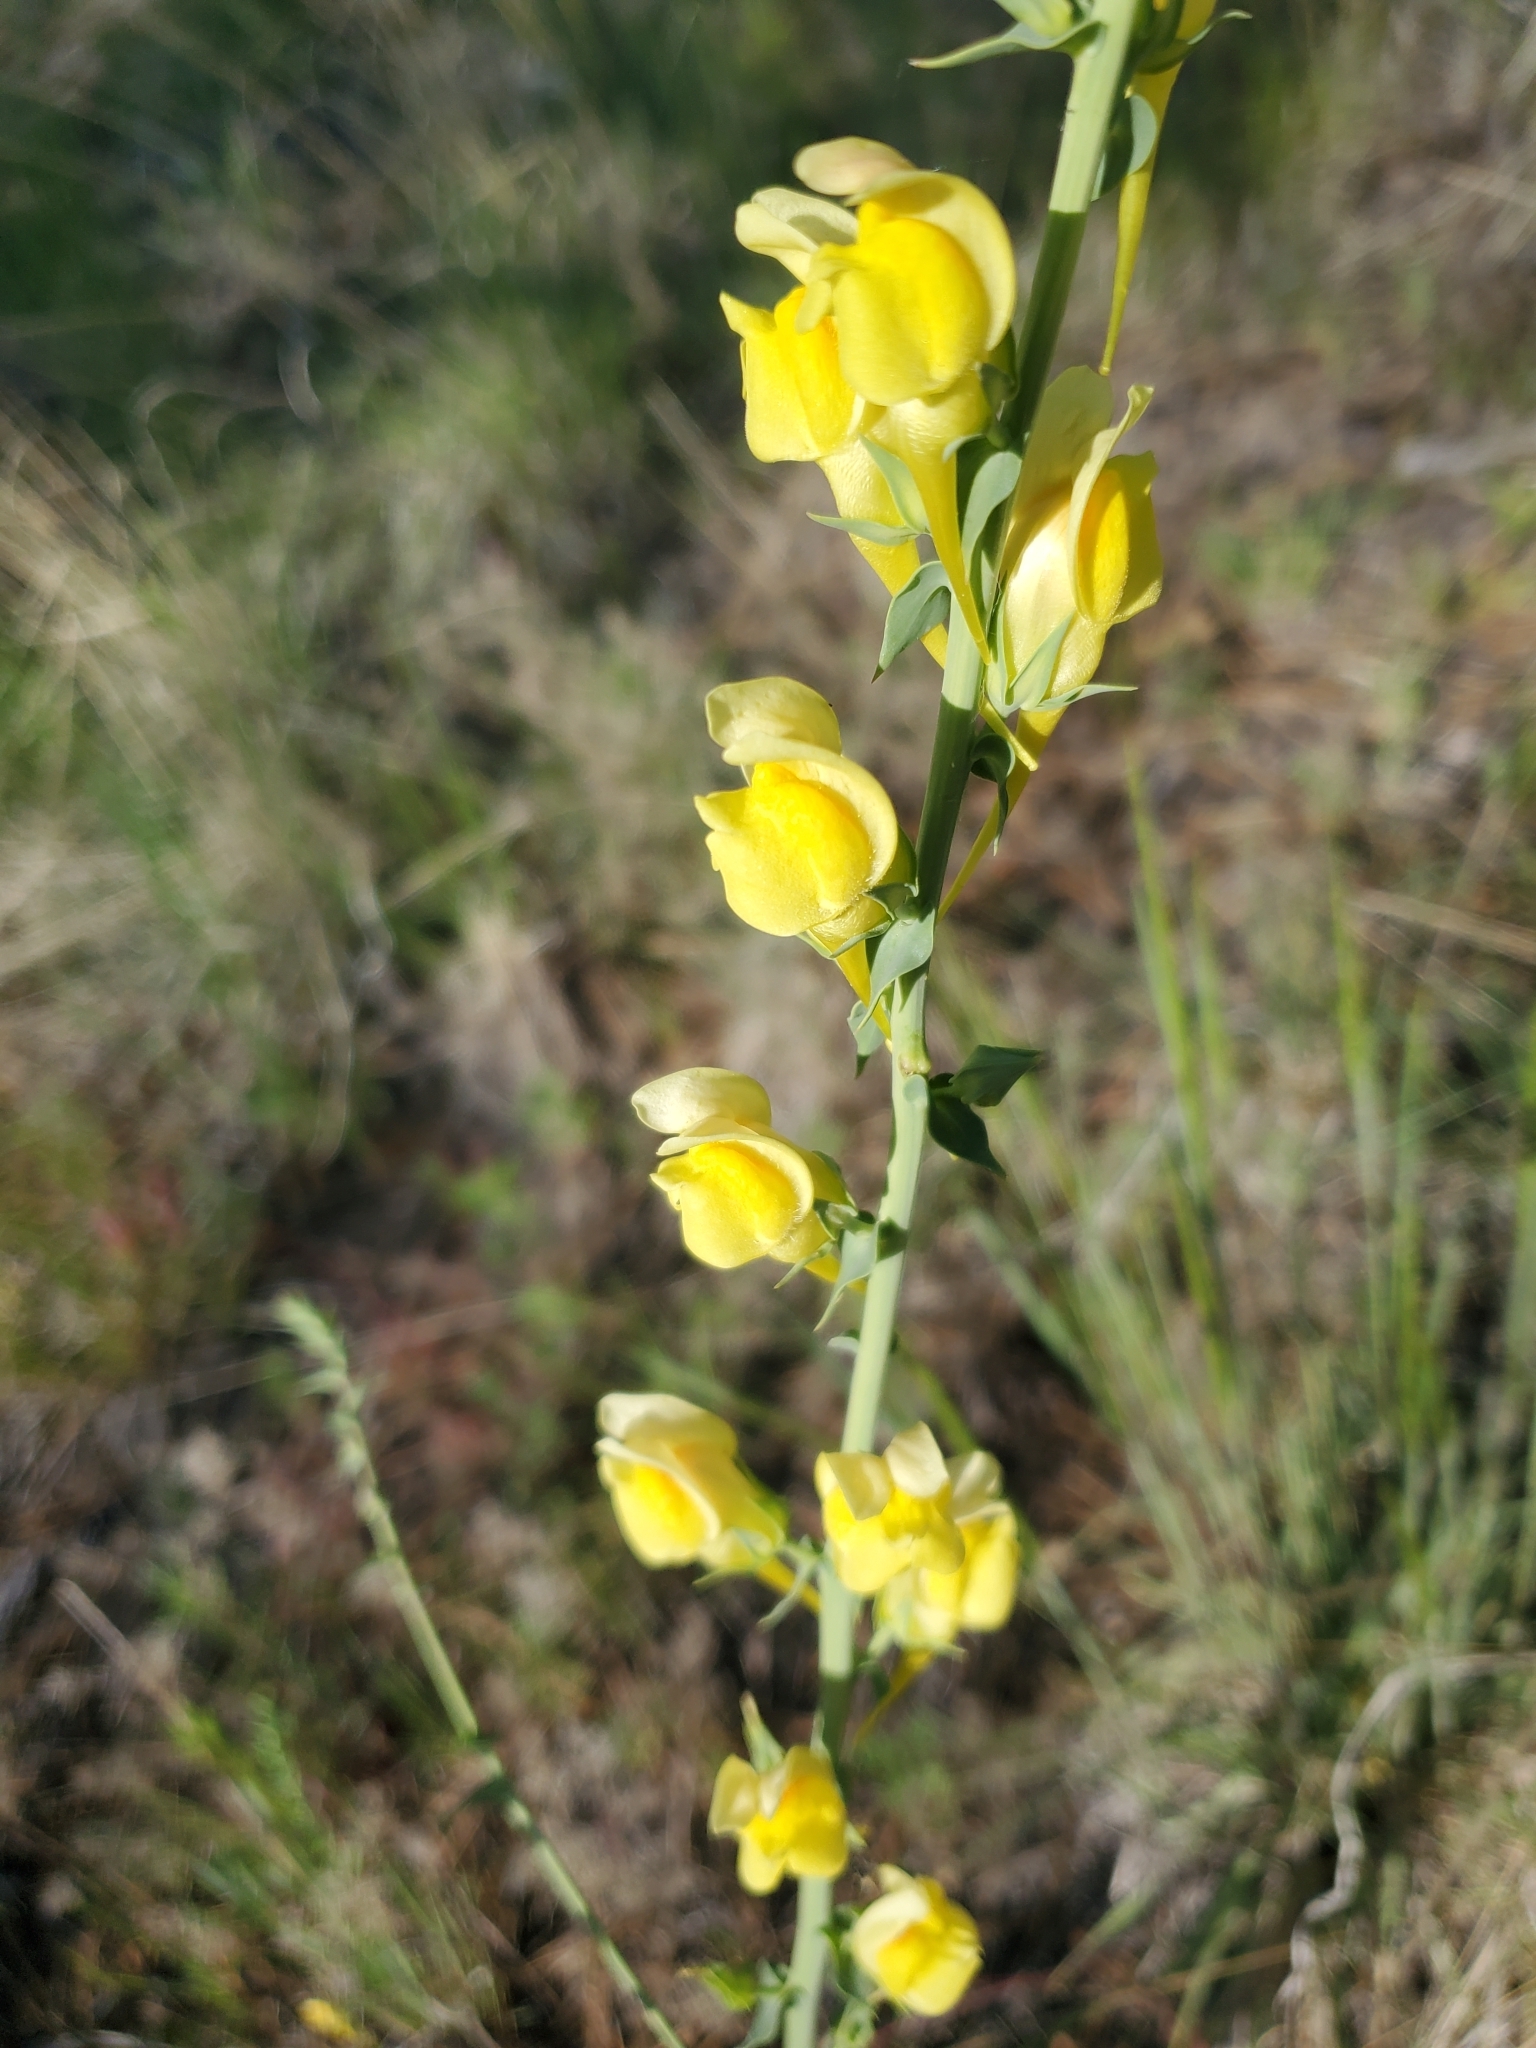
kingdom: Plantae
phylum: Tracheophyta
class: Magnoliopsida
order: Lamiales
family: Plantaginaceae
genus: Linaria
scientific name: Linaria dalmatica
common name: Dalmatian toadflax
